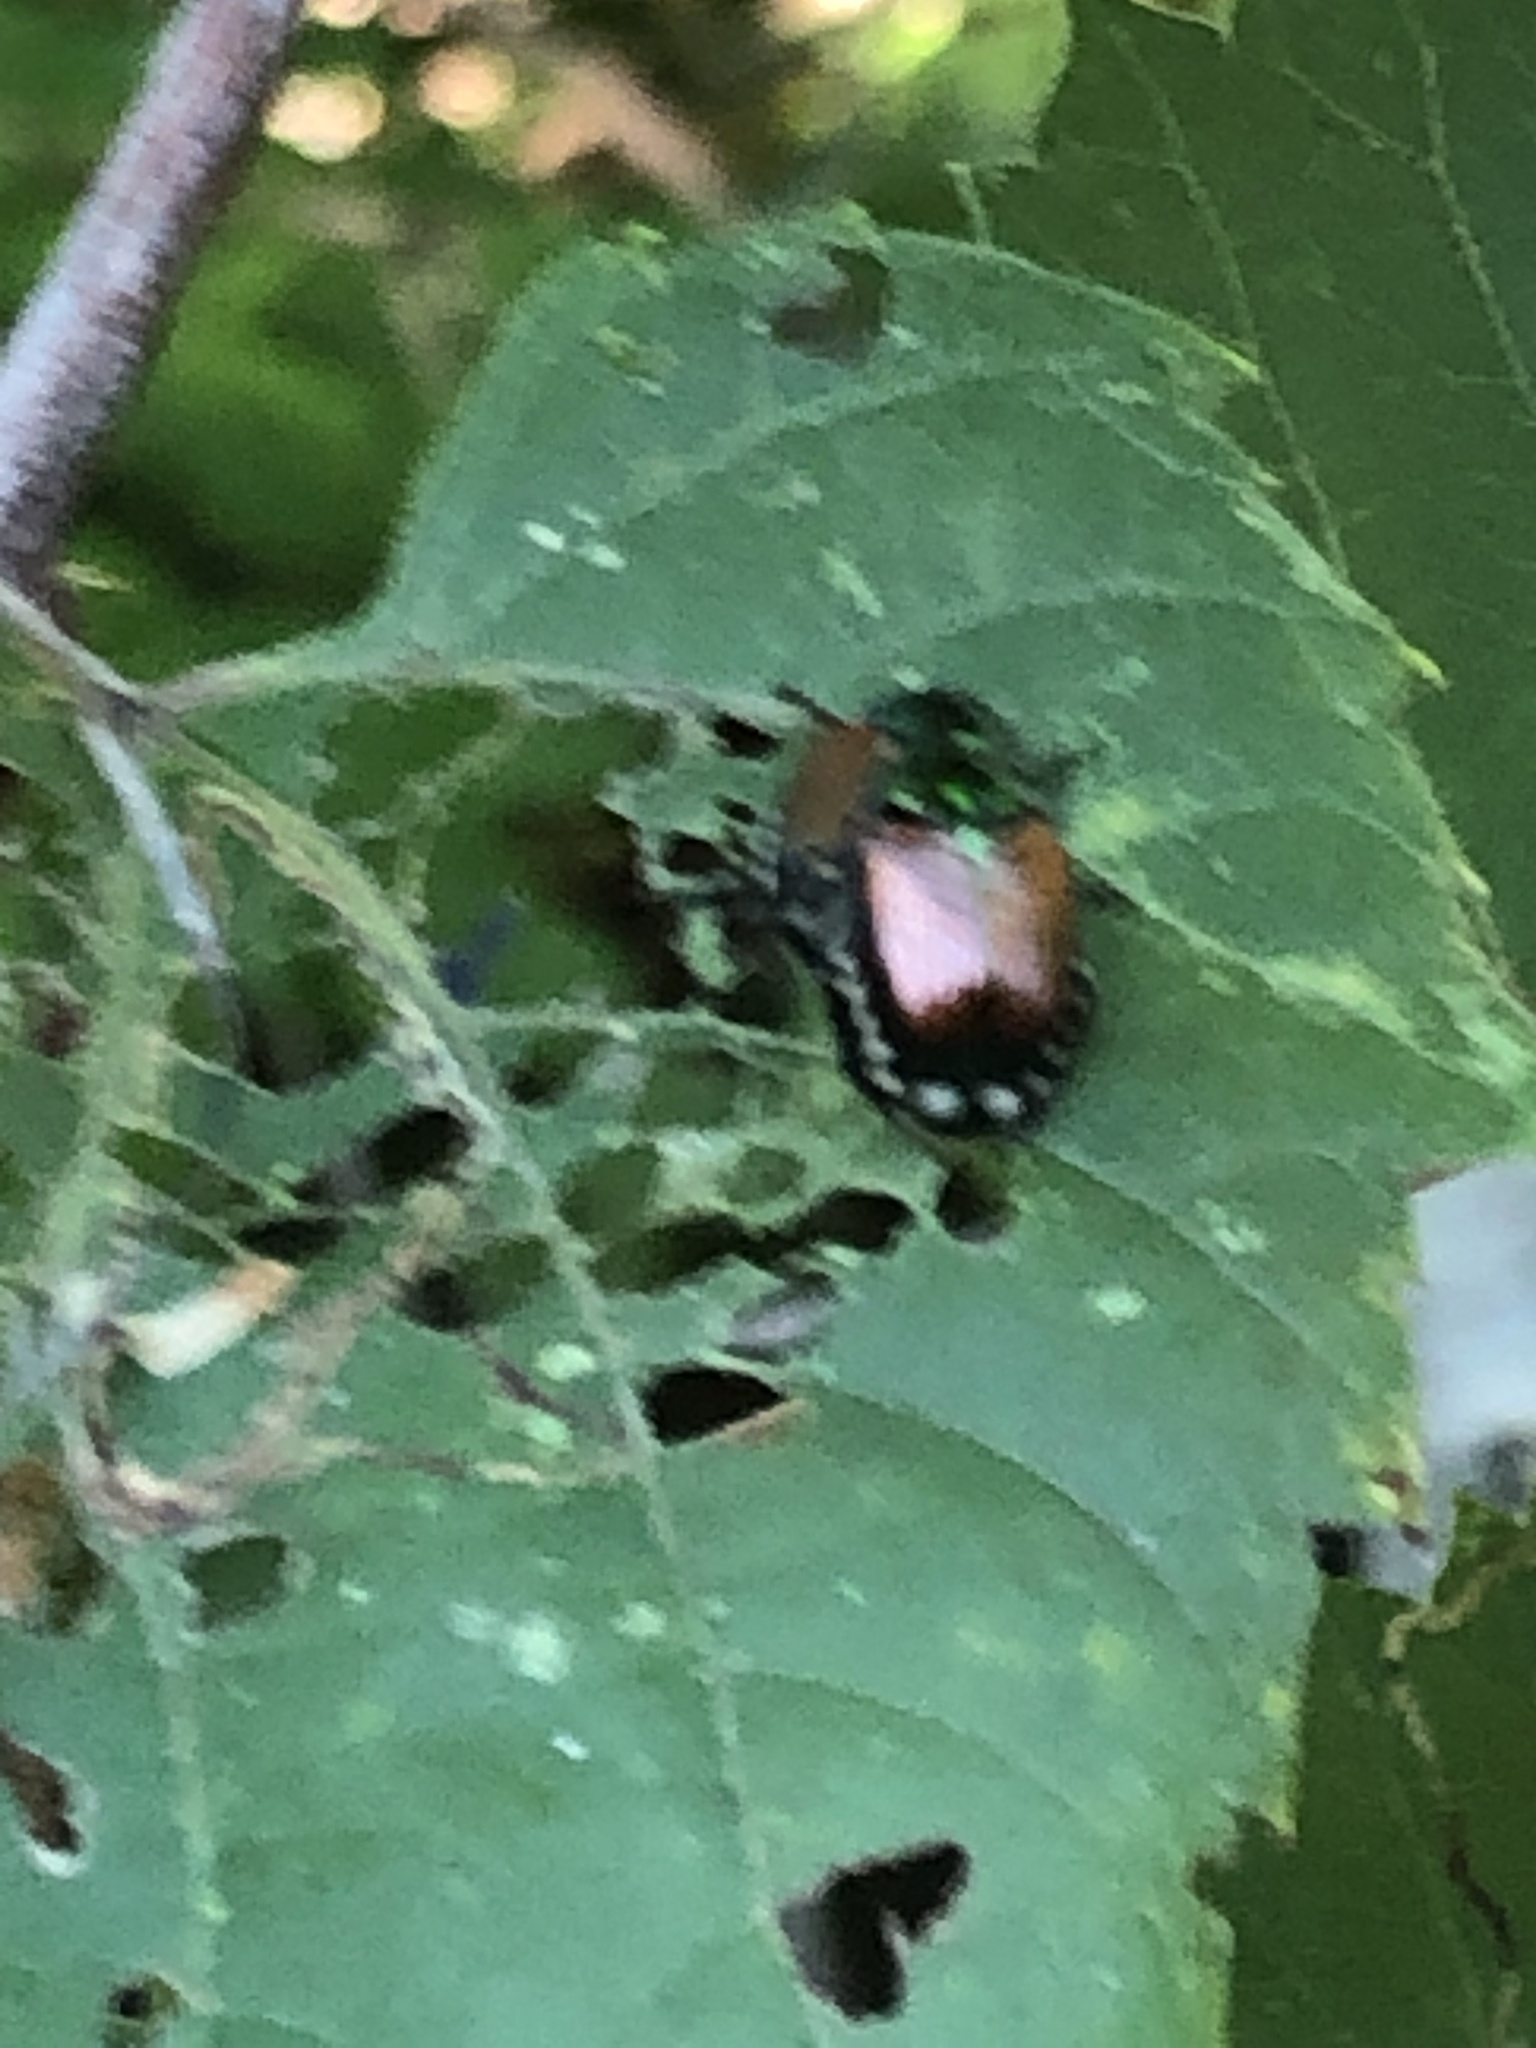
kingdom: Animalia
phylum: Arthropoda
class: Insecta
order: Coleoptera
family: Scarabaeidae
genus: Popillia
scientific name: Popillia japonica
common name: Japanese beetle
